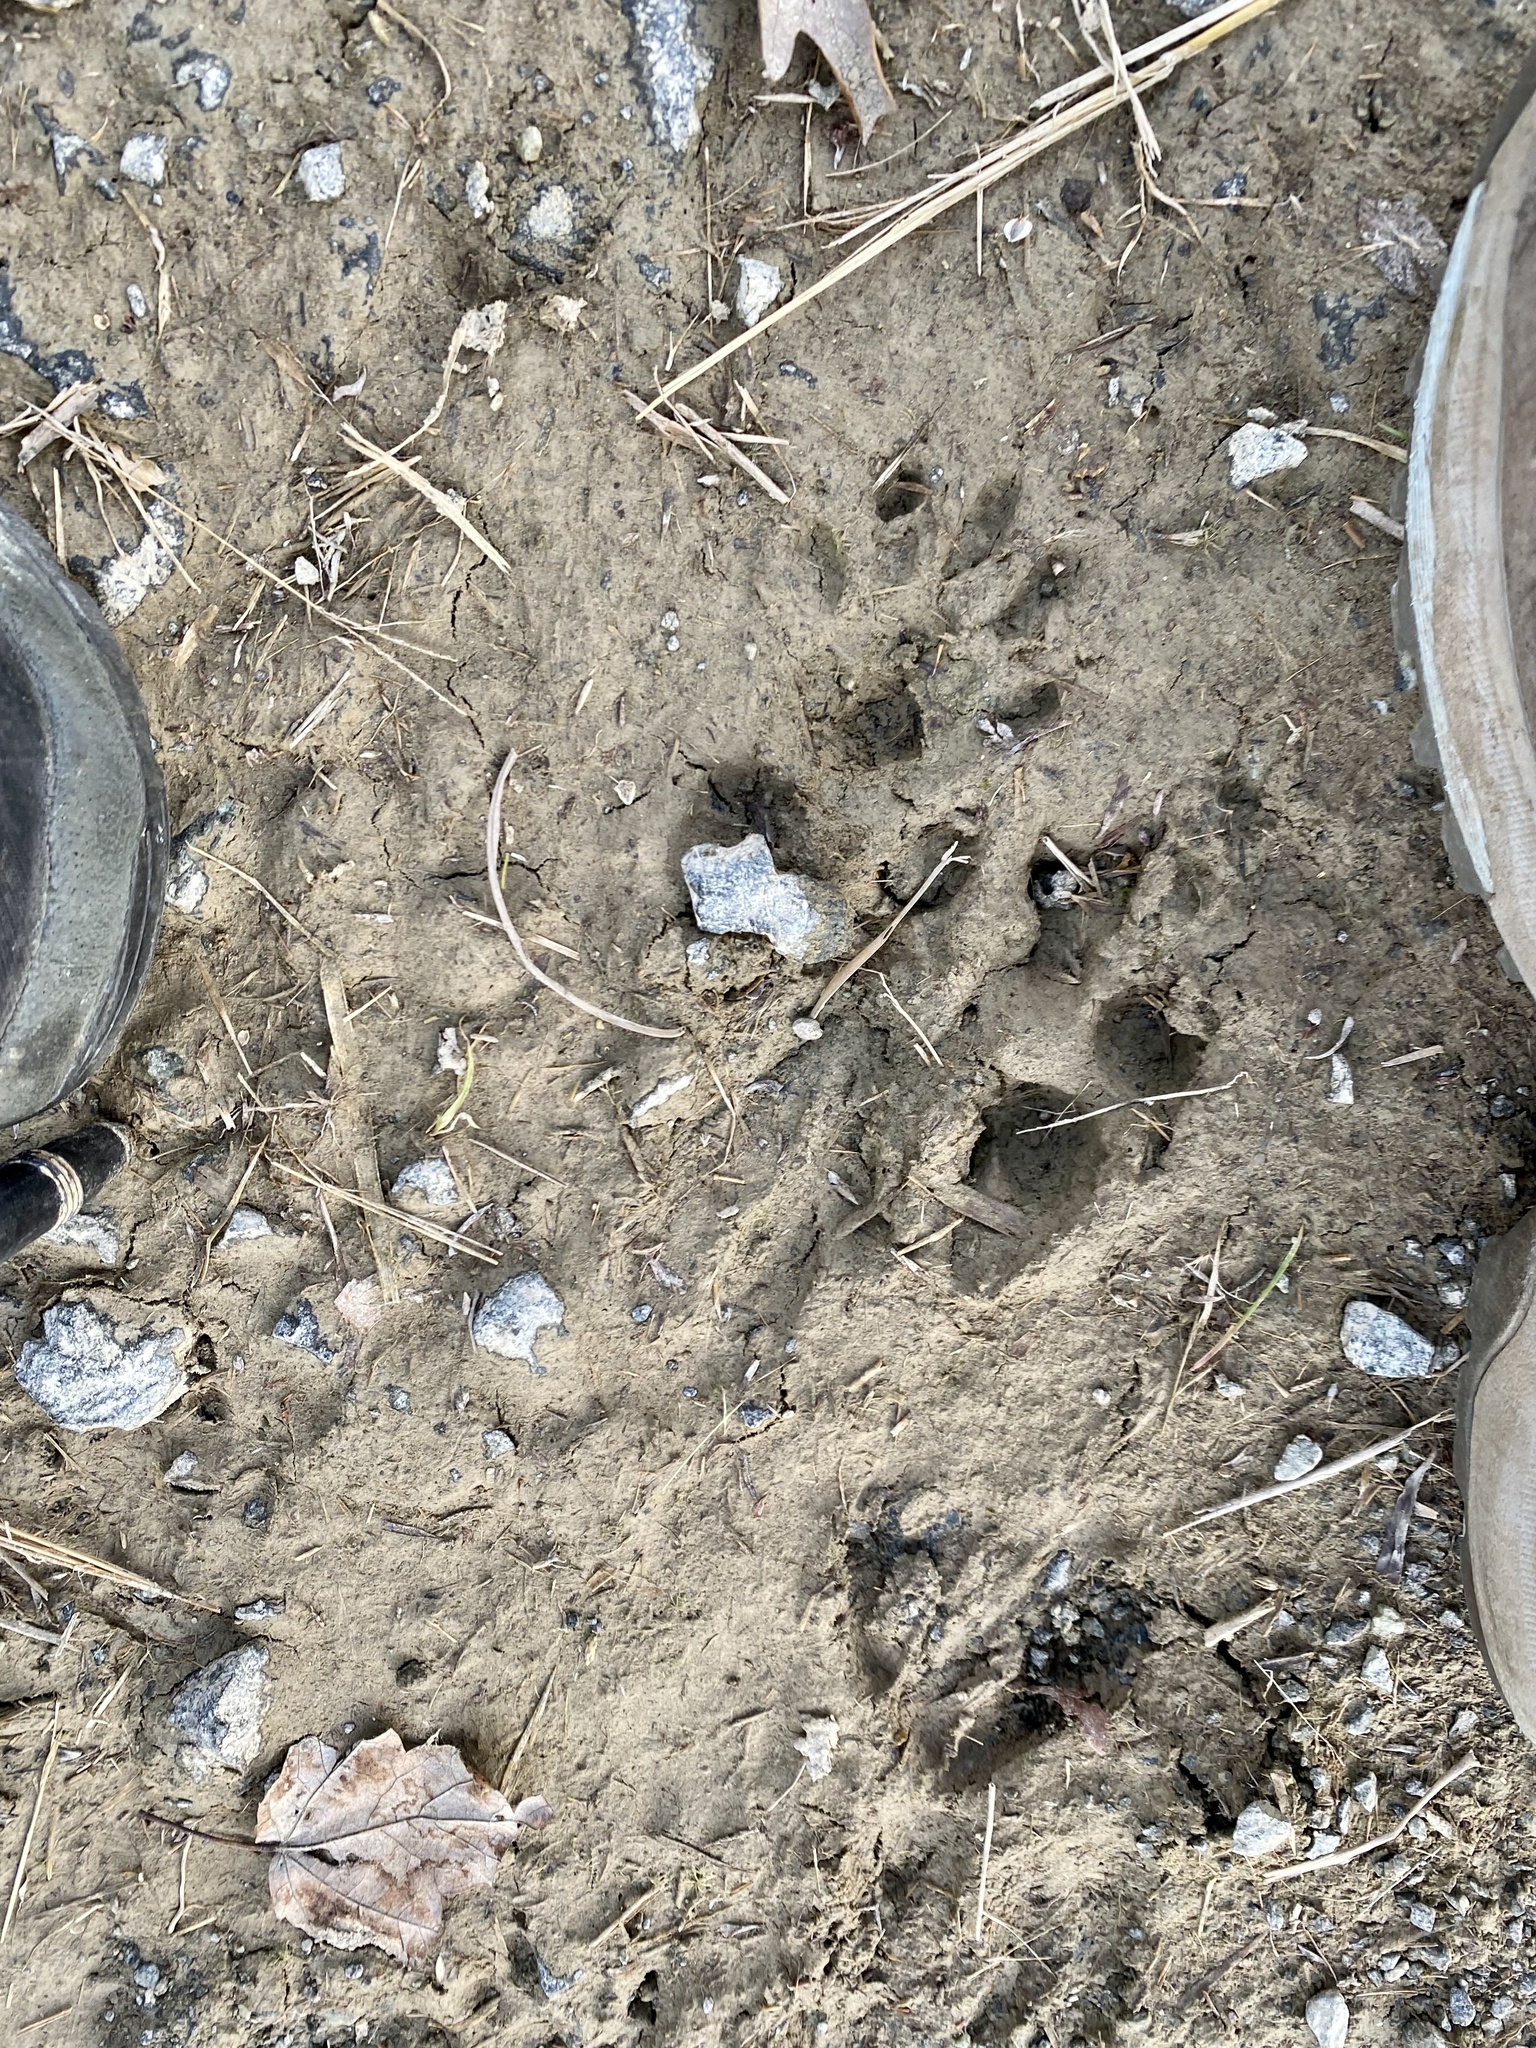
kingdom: Animalia
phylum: Chordata
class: Mammalia
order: Carnivora
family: Procyonidae
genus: Procyon
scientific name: Procyon lotor
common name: Raccoon
